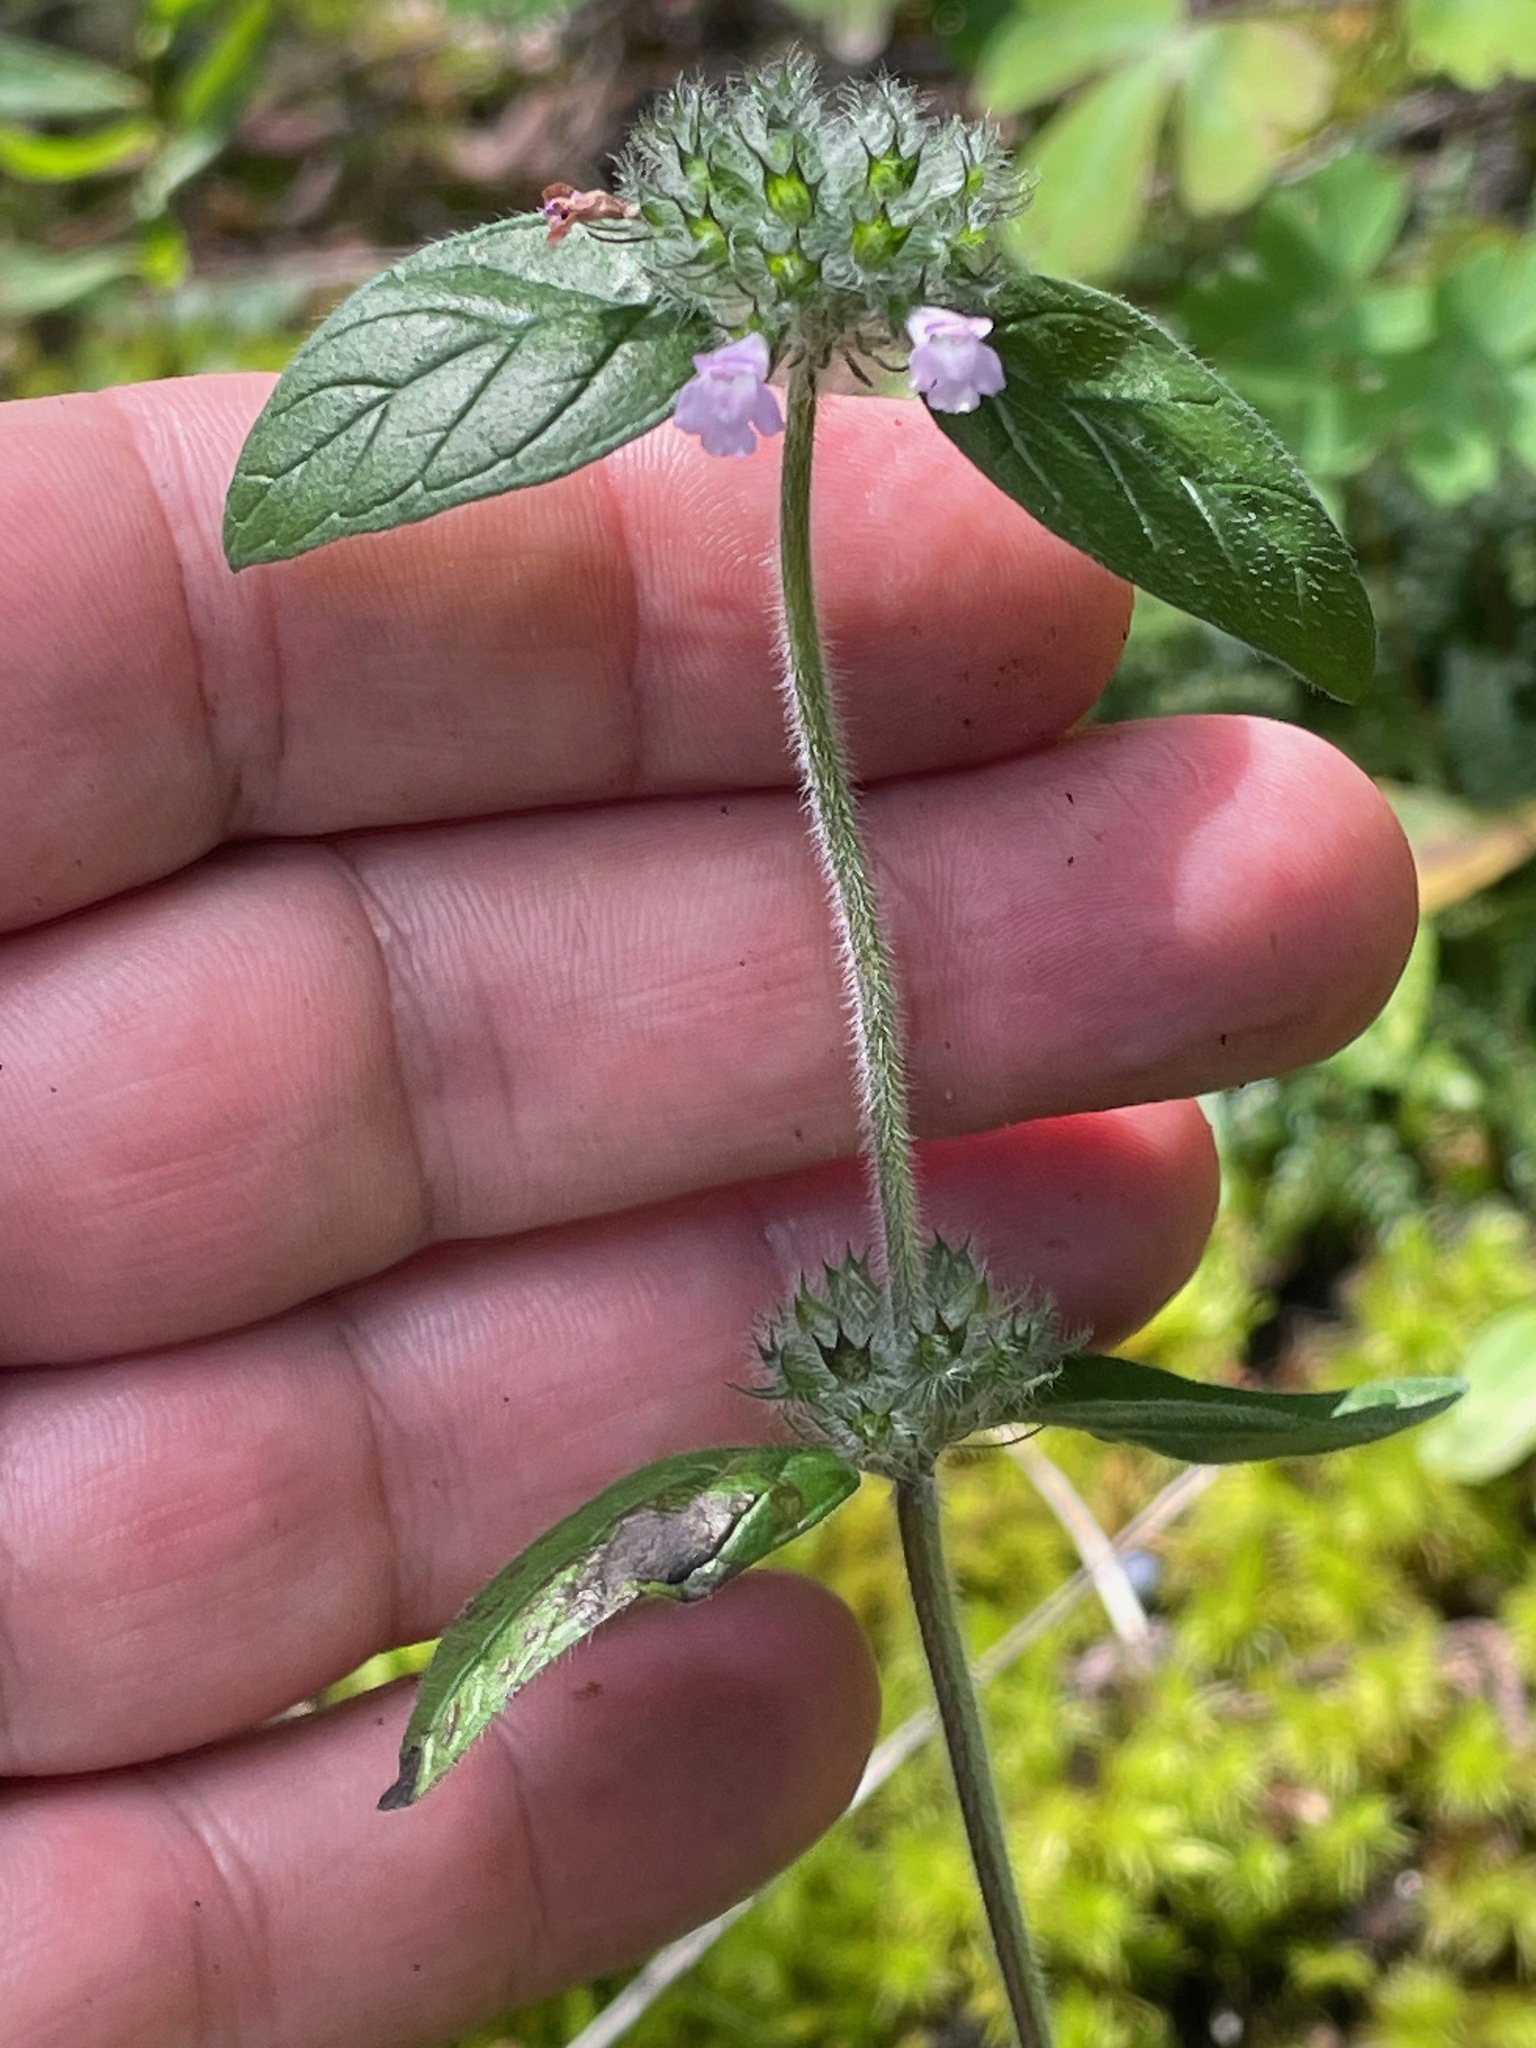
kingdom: Plantae
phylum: Tracheophyta
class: Magnoliopsida
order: Lamiales
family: Lamiaceae
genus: Clinopodium
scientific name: Clinopodium vulgare
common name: Wild basil
